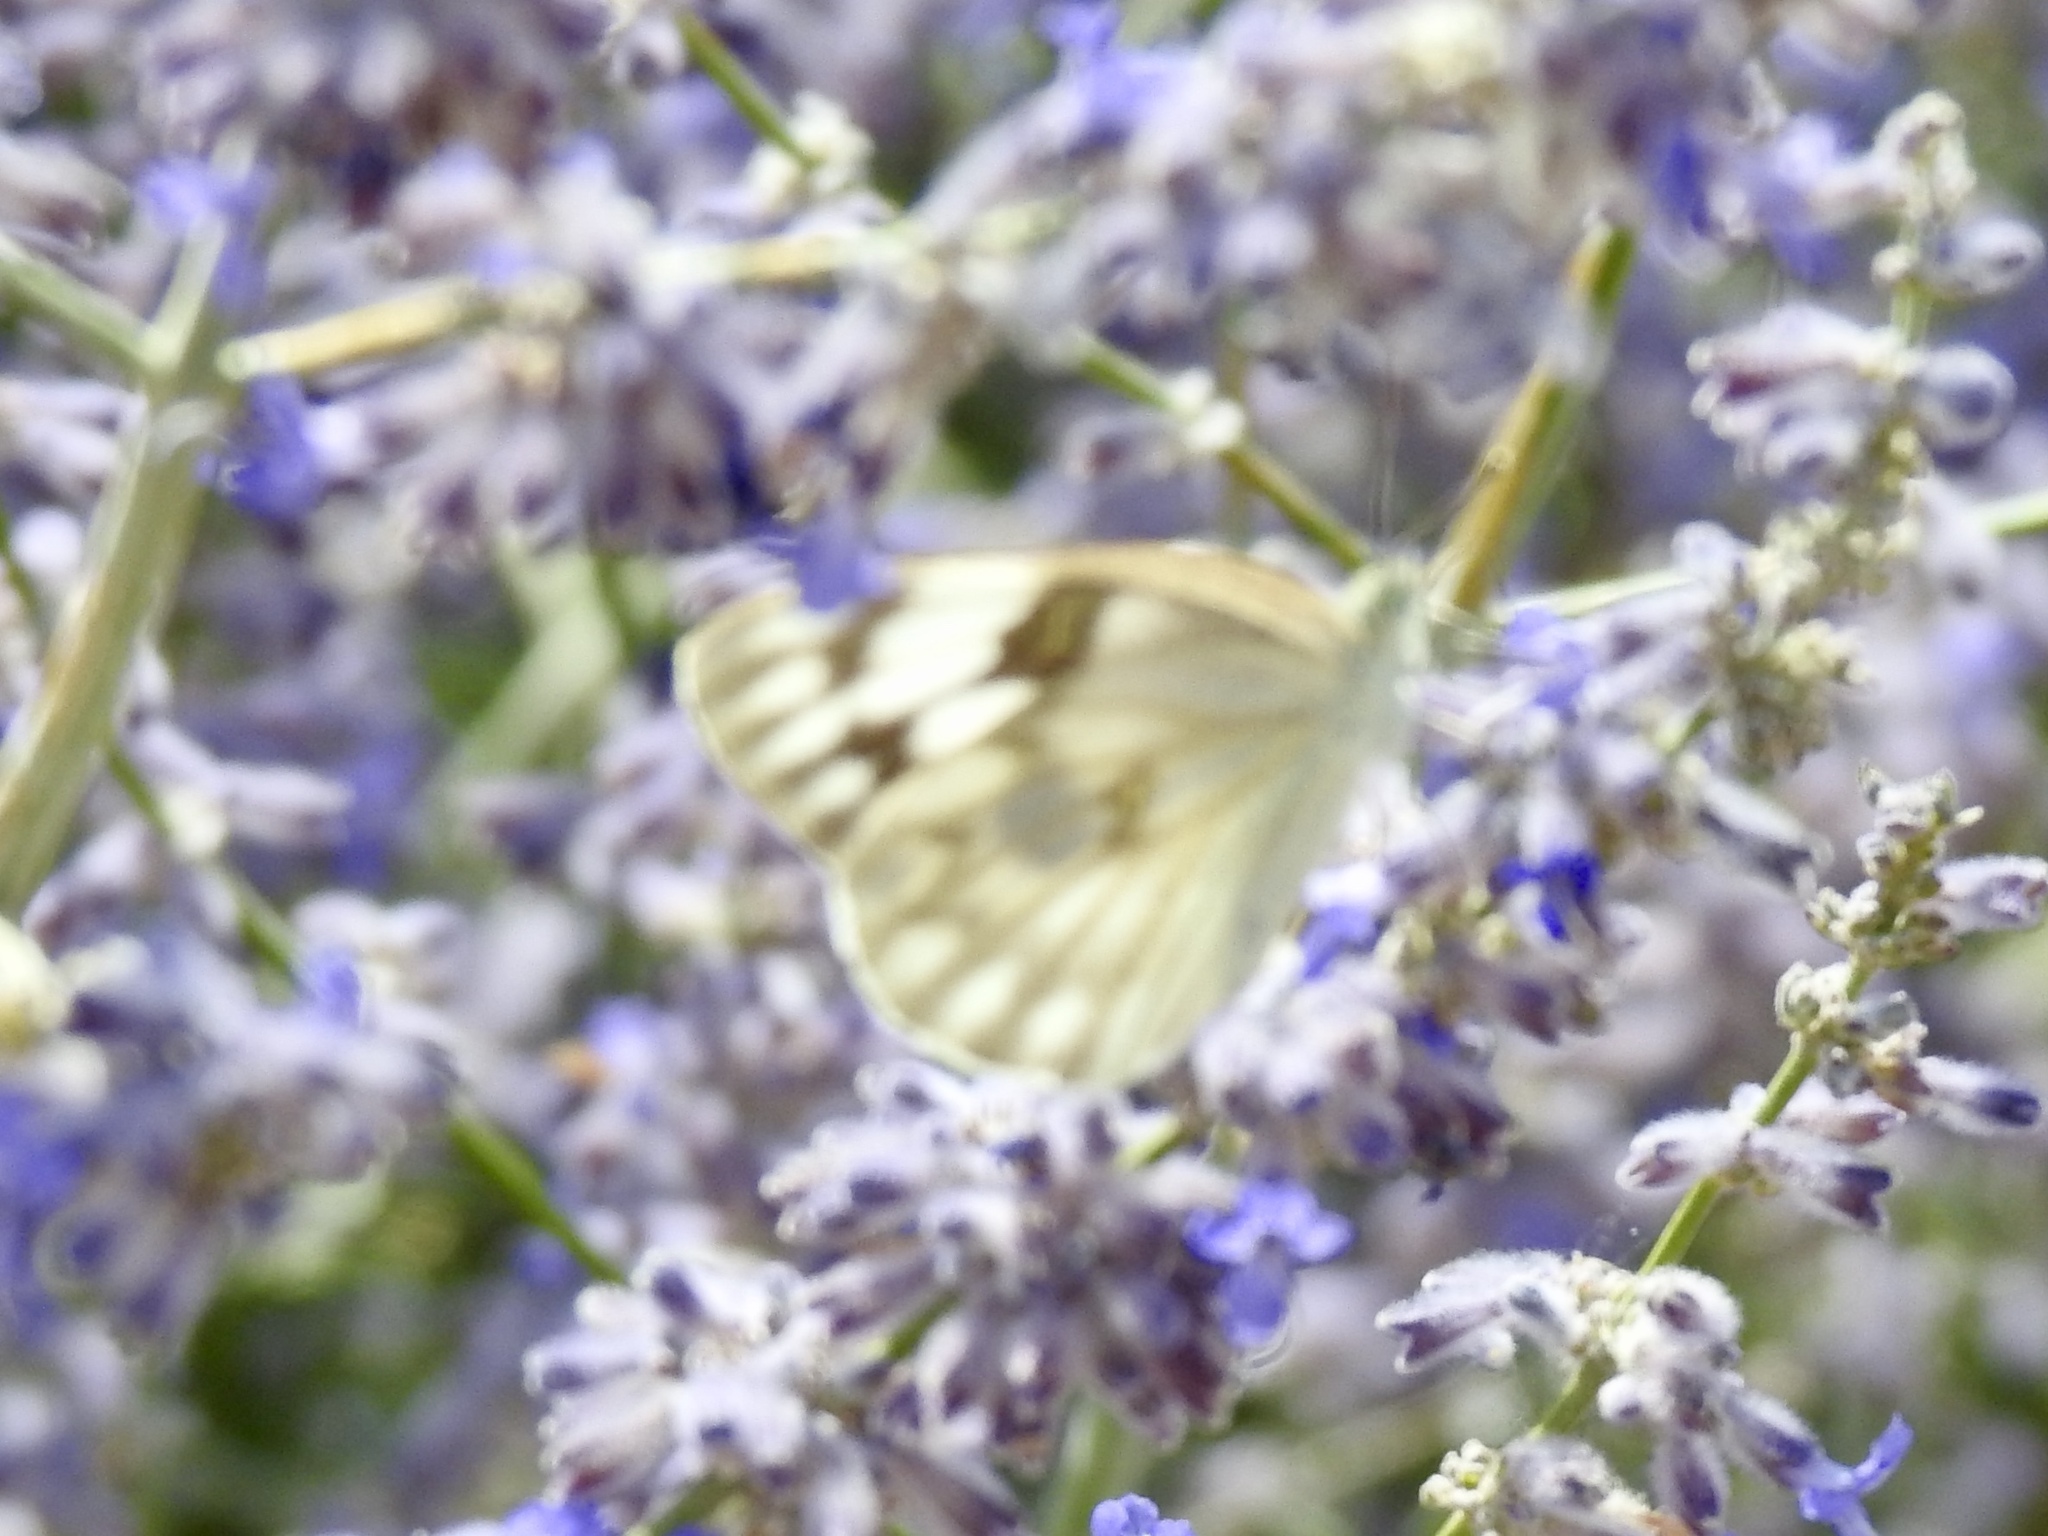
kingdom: Animalia
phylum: Arthropoda
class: Insecta
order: Lepidoptera
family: Pieridae
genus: Pontia
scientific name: Pontia protodice
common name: Checkered white
